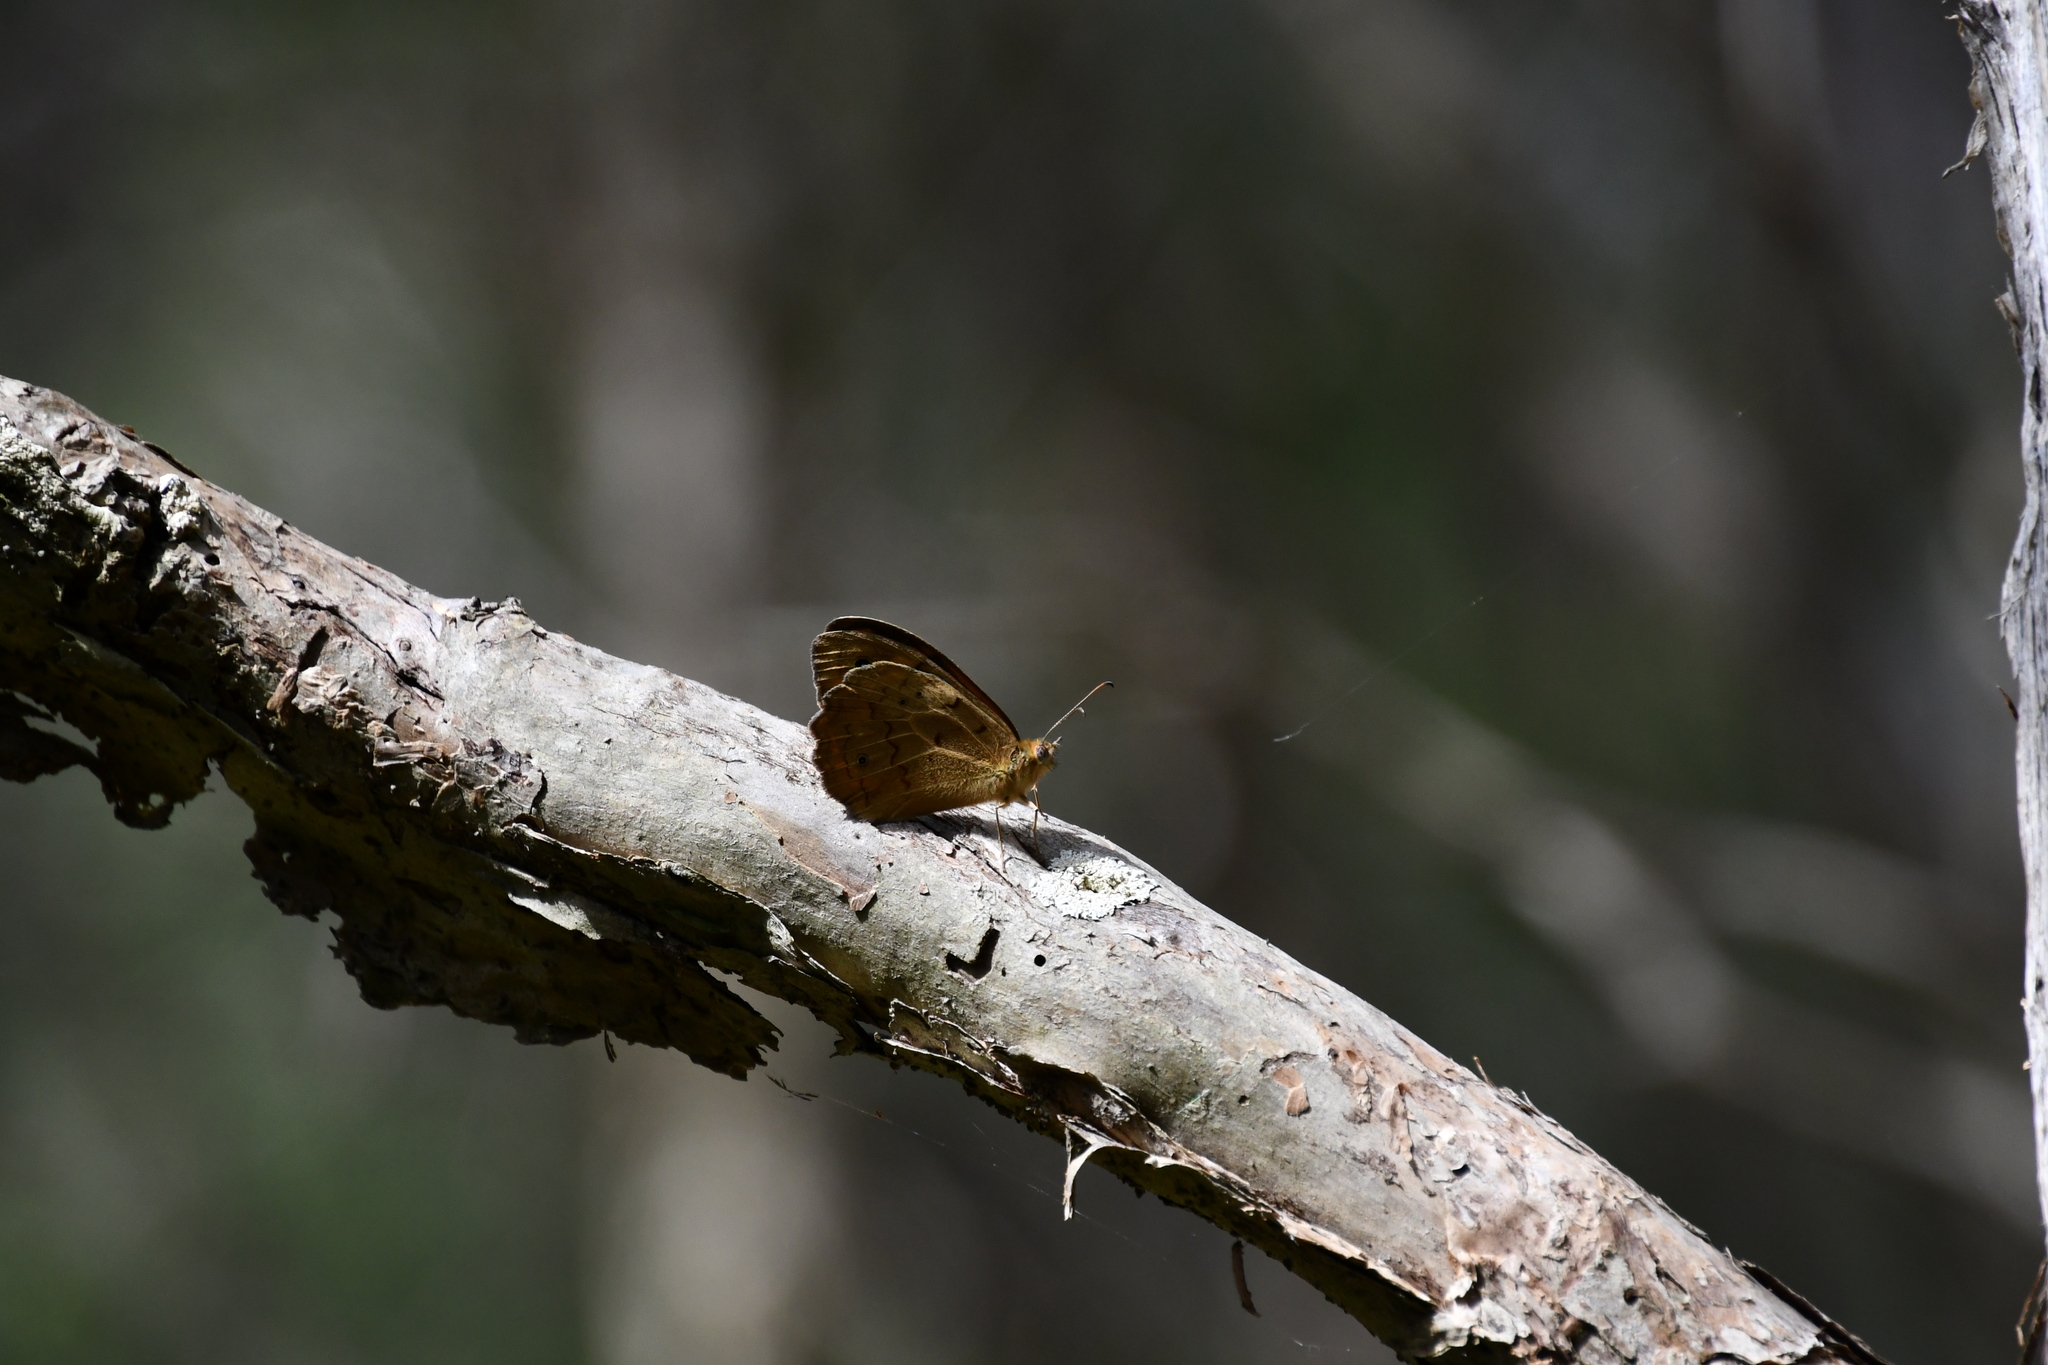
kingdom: Animalia
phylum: Arthropoda
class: Insecta
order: Lepidoptera
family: Nymphalidae
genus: Heteronympha
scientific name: Heteronympha merope
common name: Common brown
